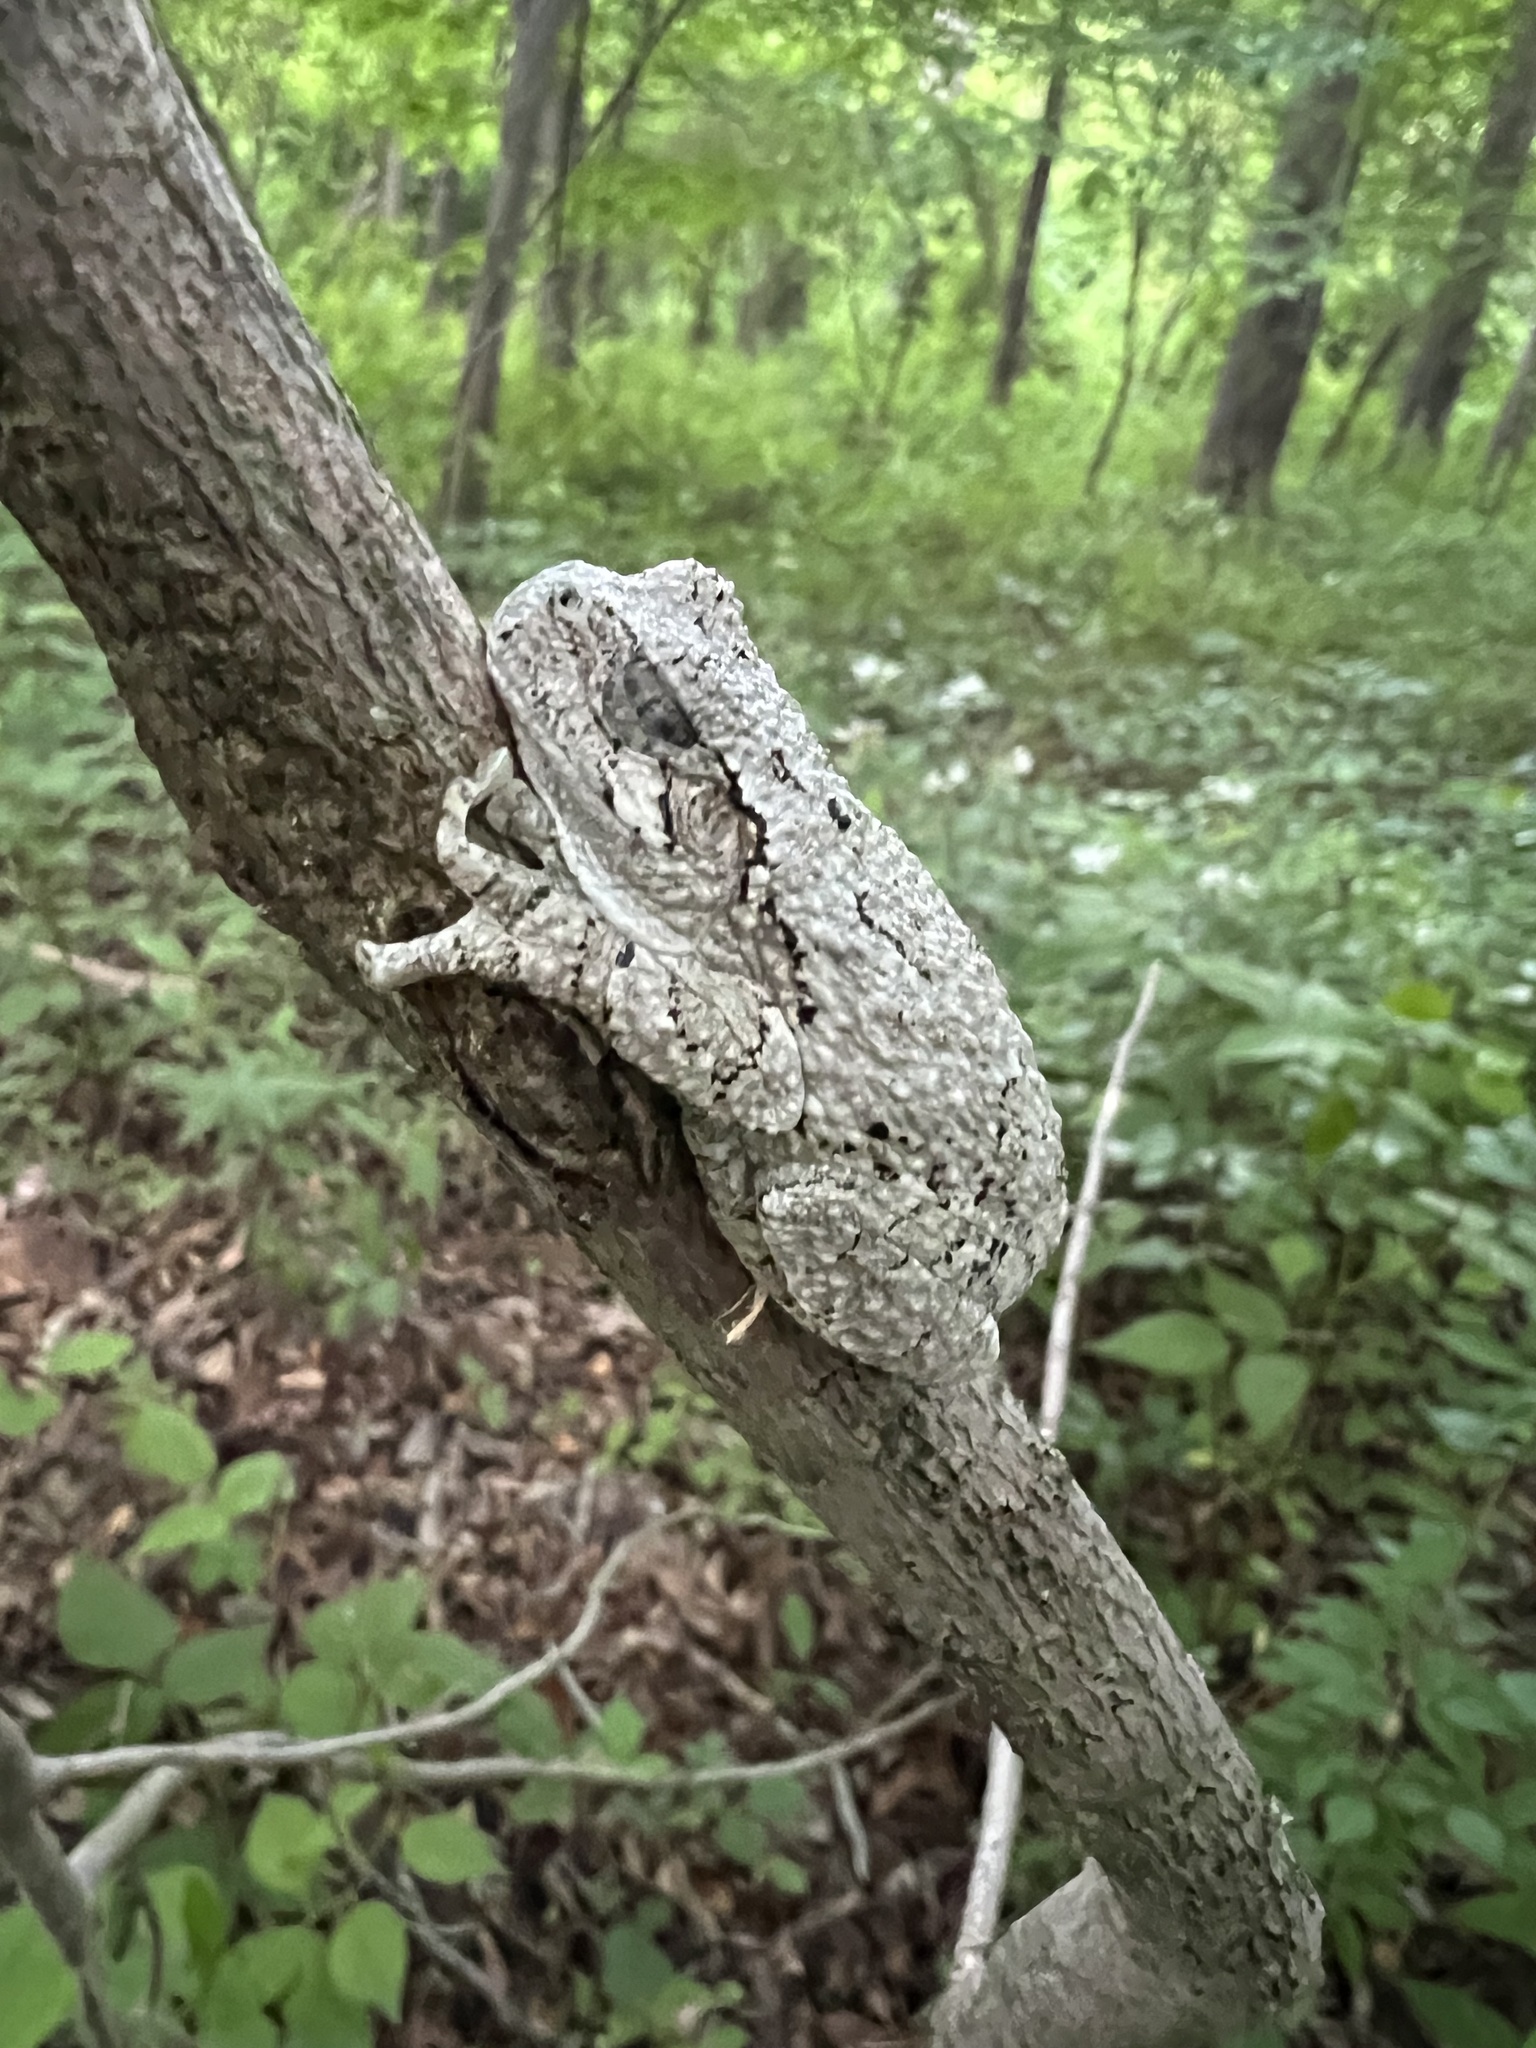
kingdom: Animalia
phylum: Chordata
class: Amphibia
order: Anura
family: Hylidae
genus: Hyla
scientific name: Hyla
